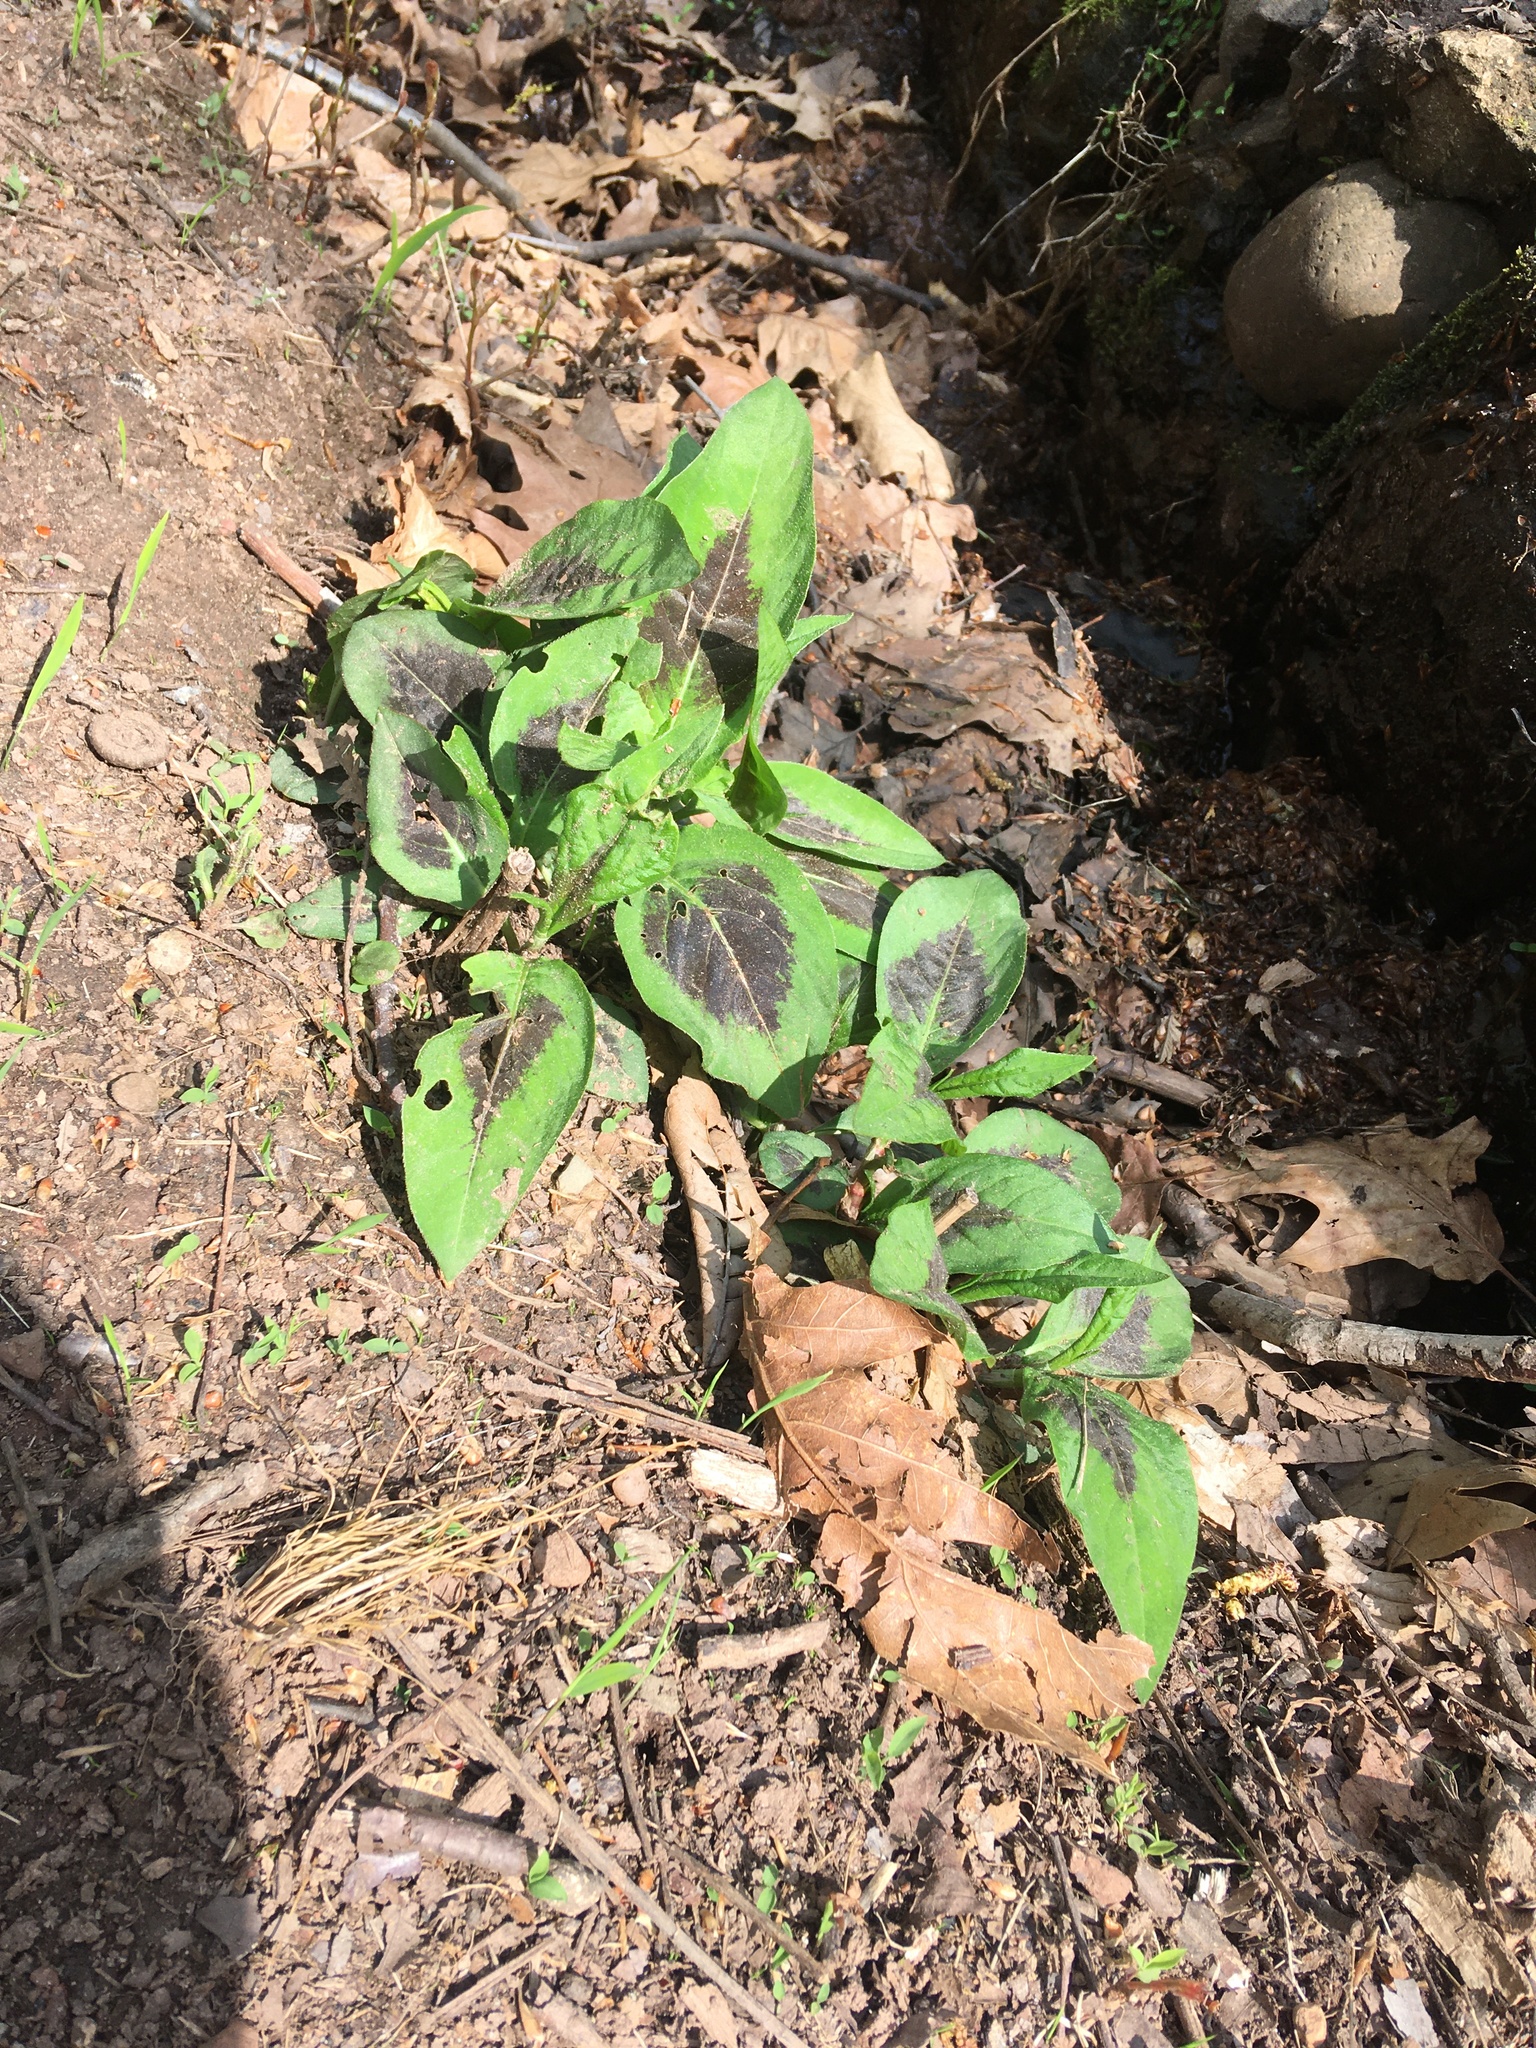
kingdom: Plantae
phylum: Tracheophyta
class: Magnoliopsida
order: Caryophyllales
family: Polygonaceae
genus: Persicaria
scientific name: Persicaria virginiana
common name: Jumpseed
